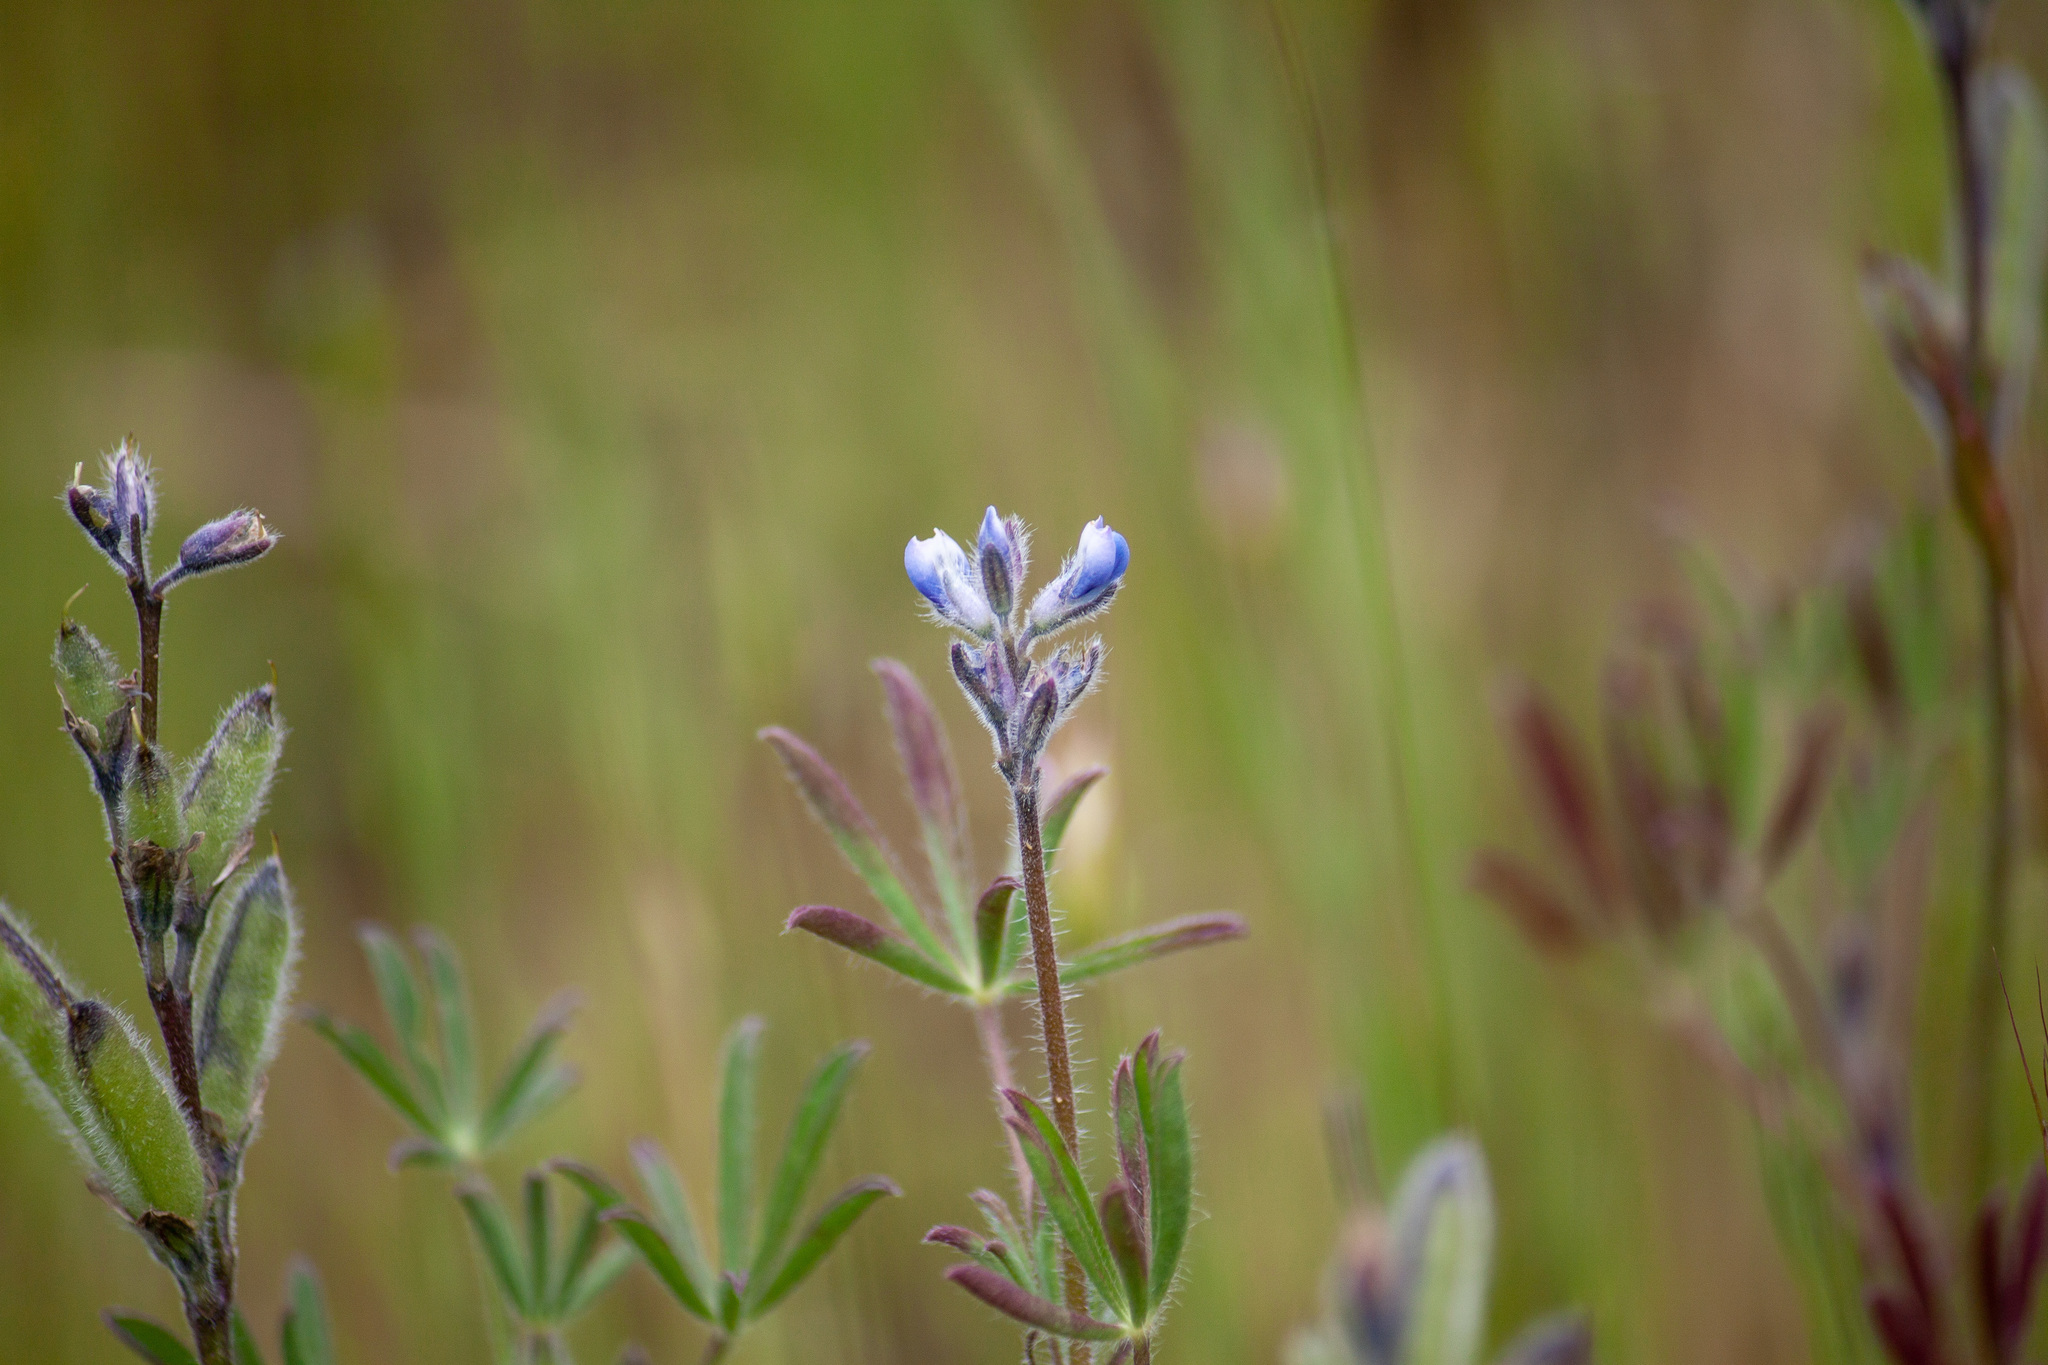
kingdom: Plantae
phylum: Tracheophyta
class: Magnoliopsida
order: Fabales
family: Fabaceae
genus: Lupinus
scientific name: Lupinus bicolor
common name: Miniature lupine
